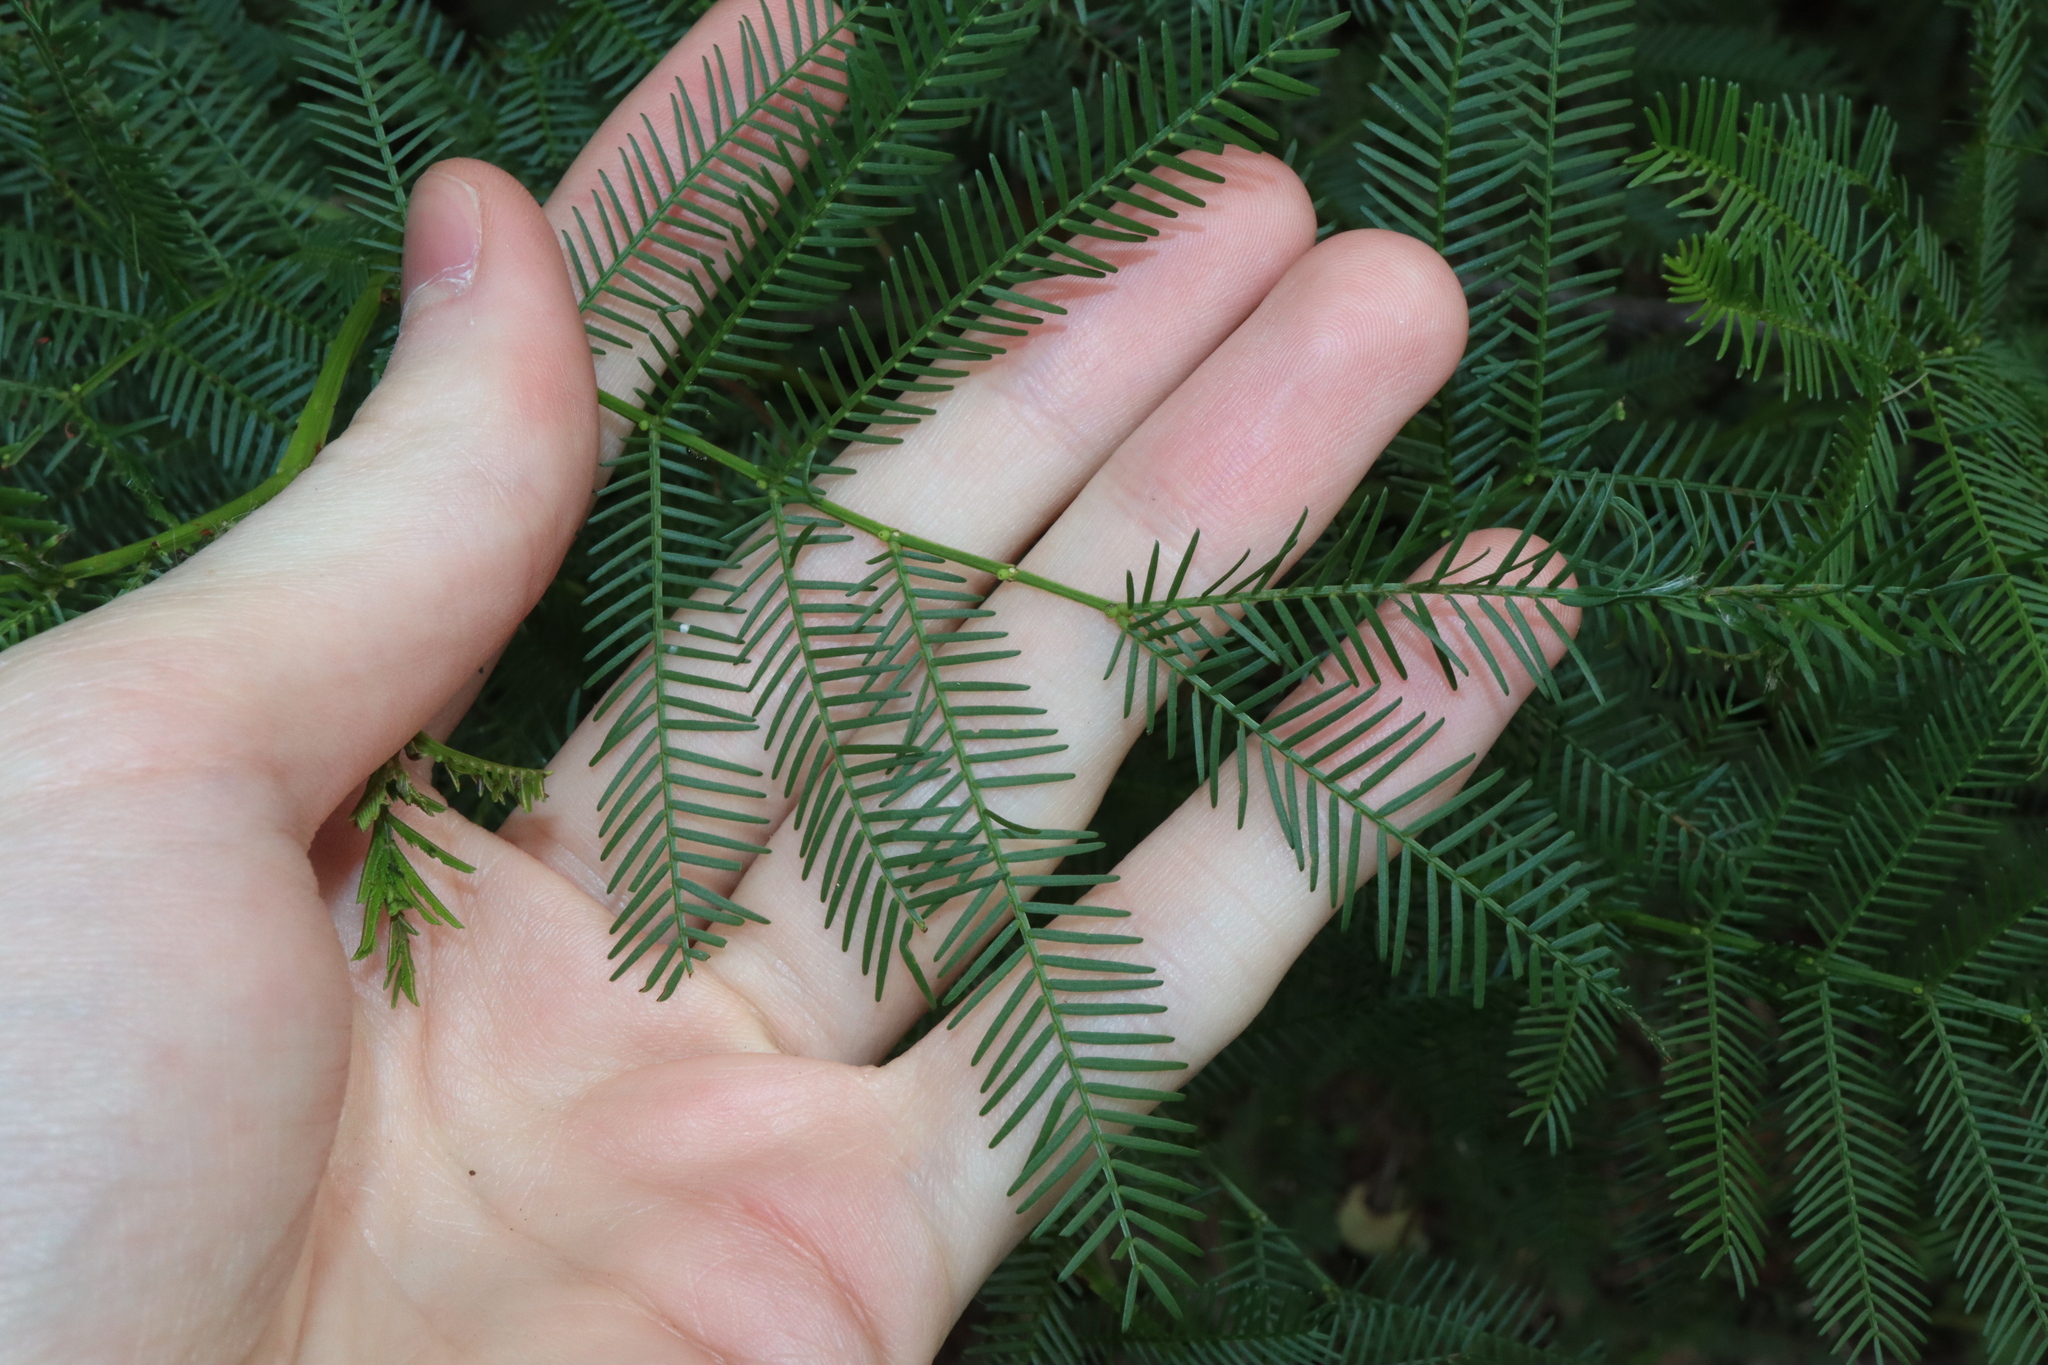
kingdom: Plantae
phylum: Tracheophyta
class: Magnoliopsida
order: Fabales
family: Fabaceae
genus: Acacia
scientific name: Acacia decurrens
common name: Green wattle
